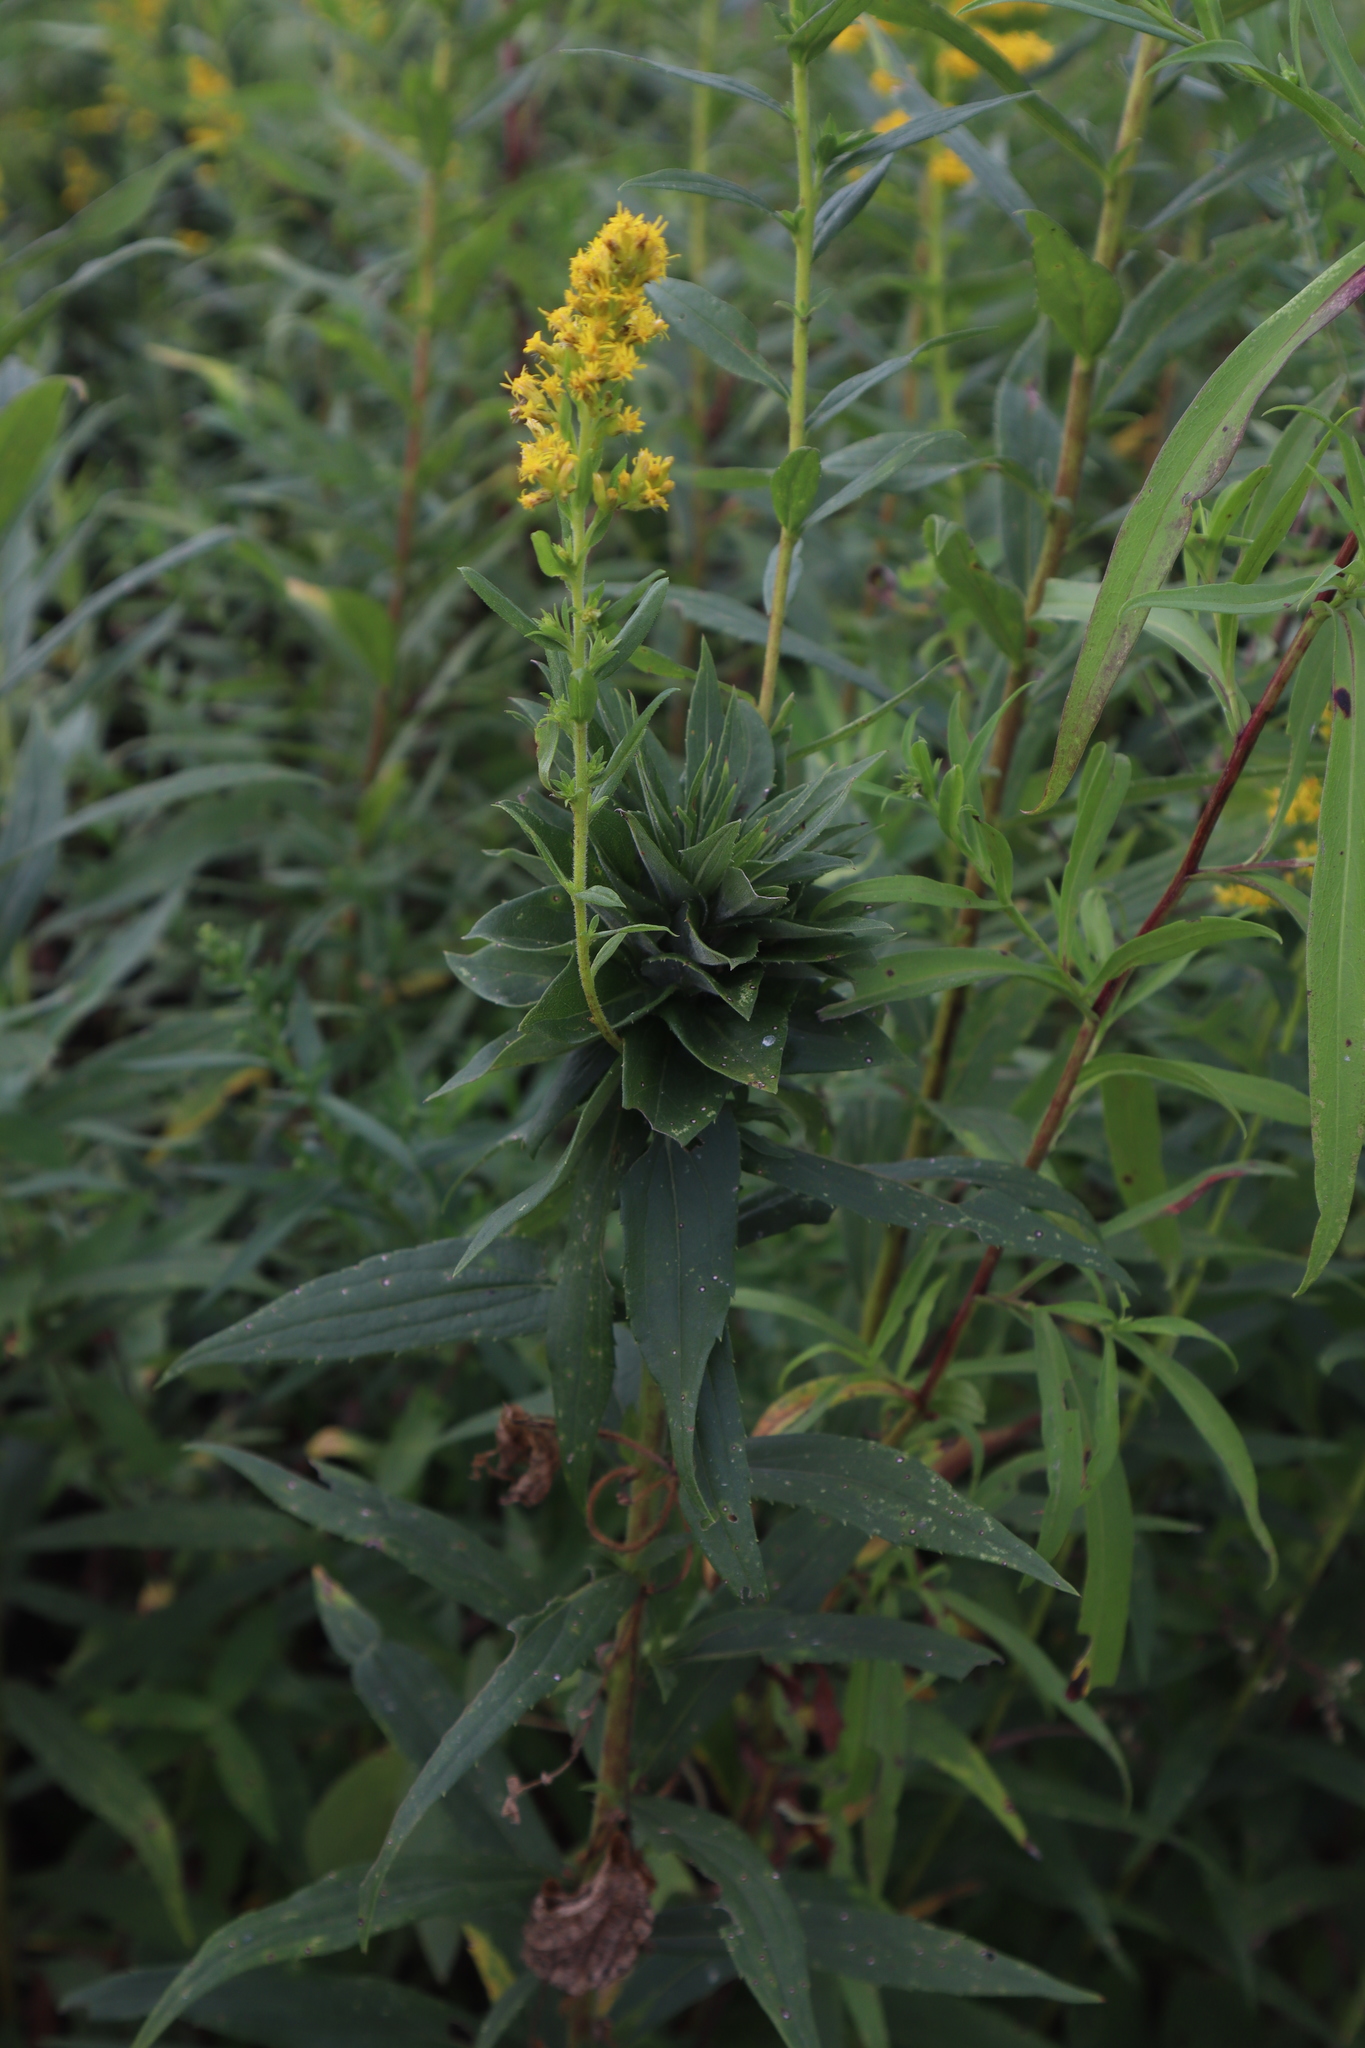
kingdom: Animalia
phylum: Arthropoda
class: Insecta
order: Diptera
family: Cecidomyiidae
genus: Rhopalomyia
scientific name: Rhopalomyia solidaginis
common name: Goldenrod bunch gall midge
